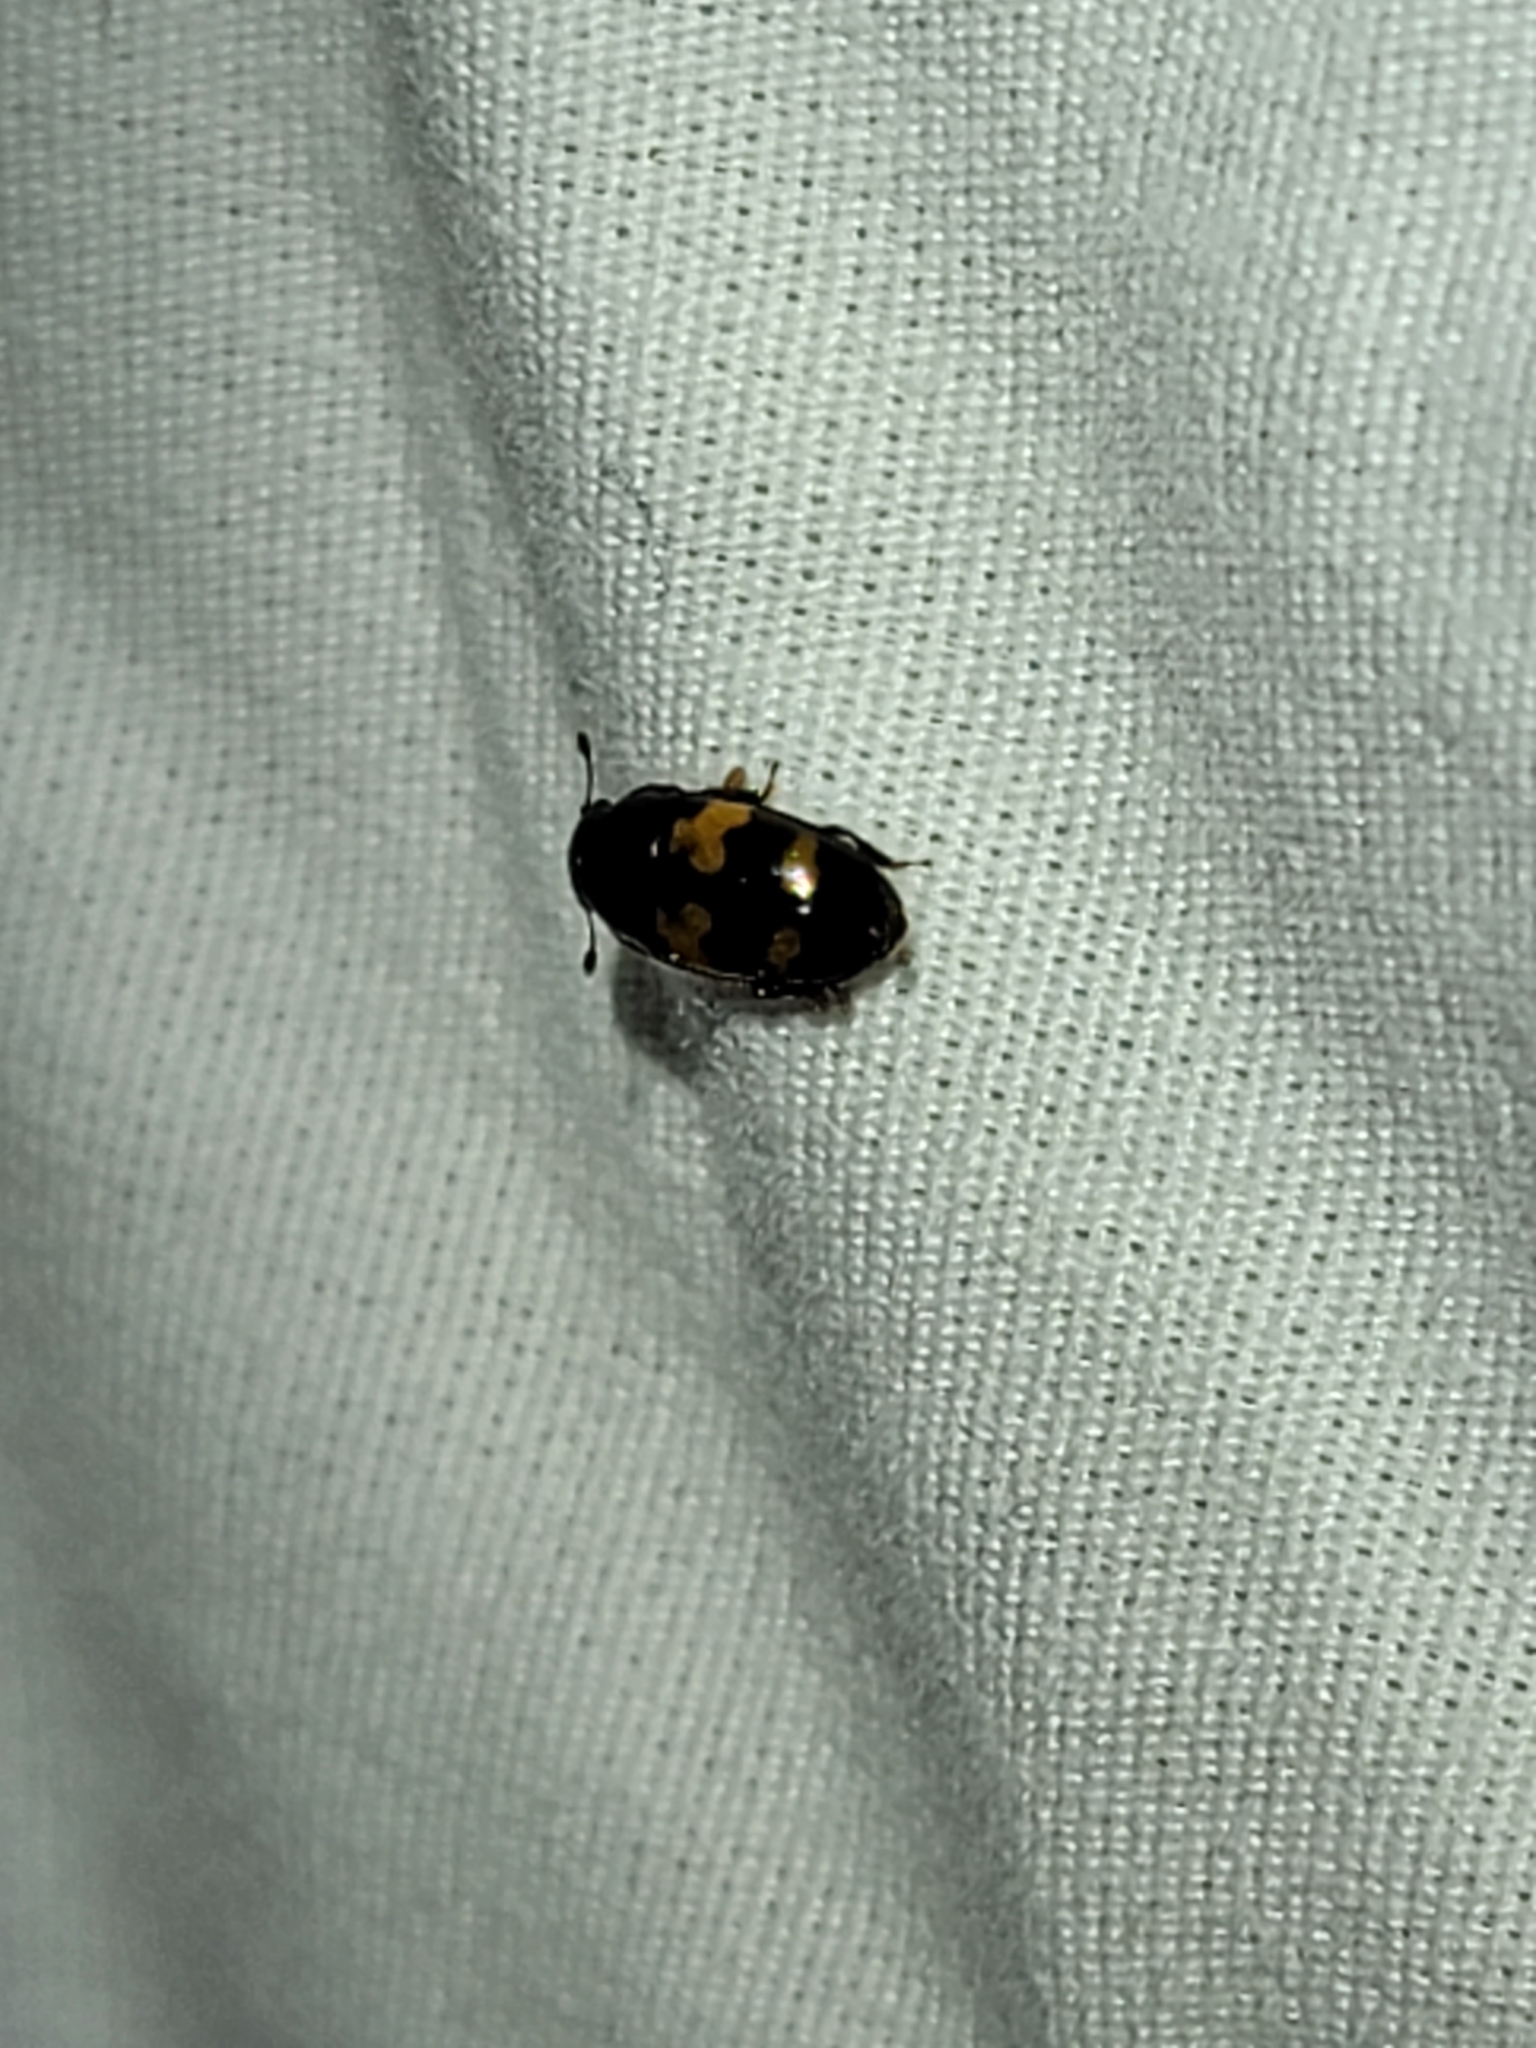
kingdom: Animalia
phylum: Arthropoda
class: Insecta
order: Coleoptera
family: Nitidulidae
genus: Glischrochilus
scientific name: Glischrochilus fasciatus
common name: Picnic beetle
